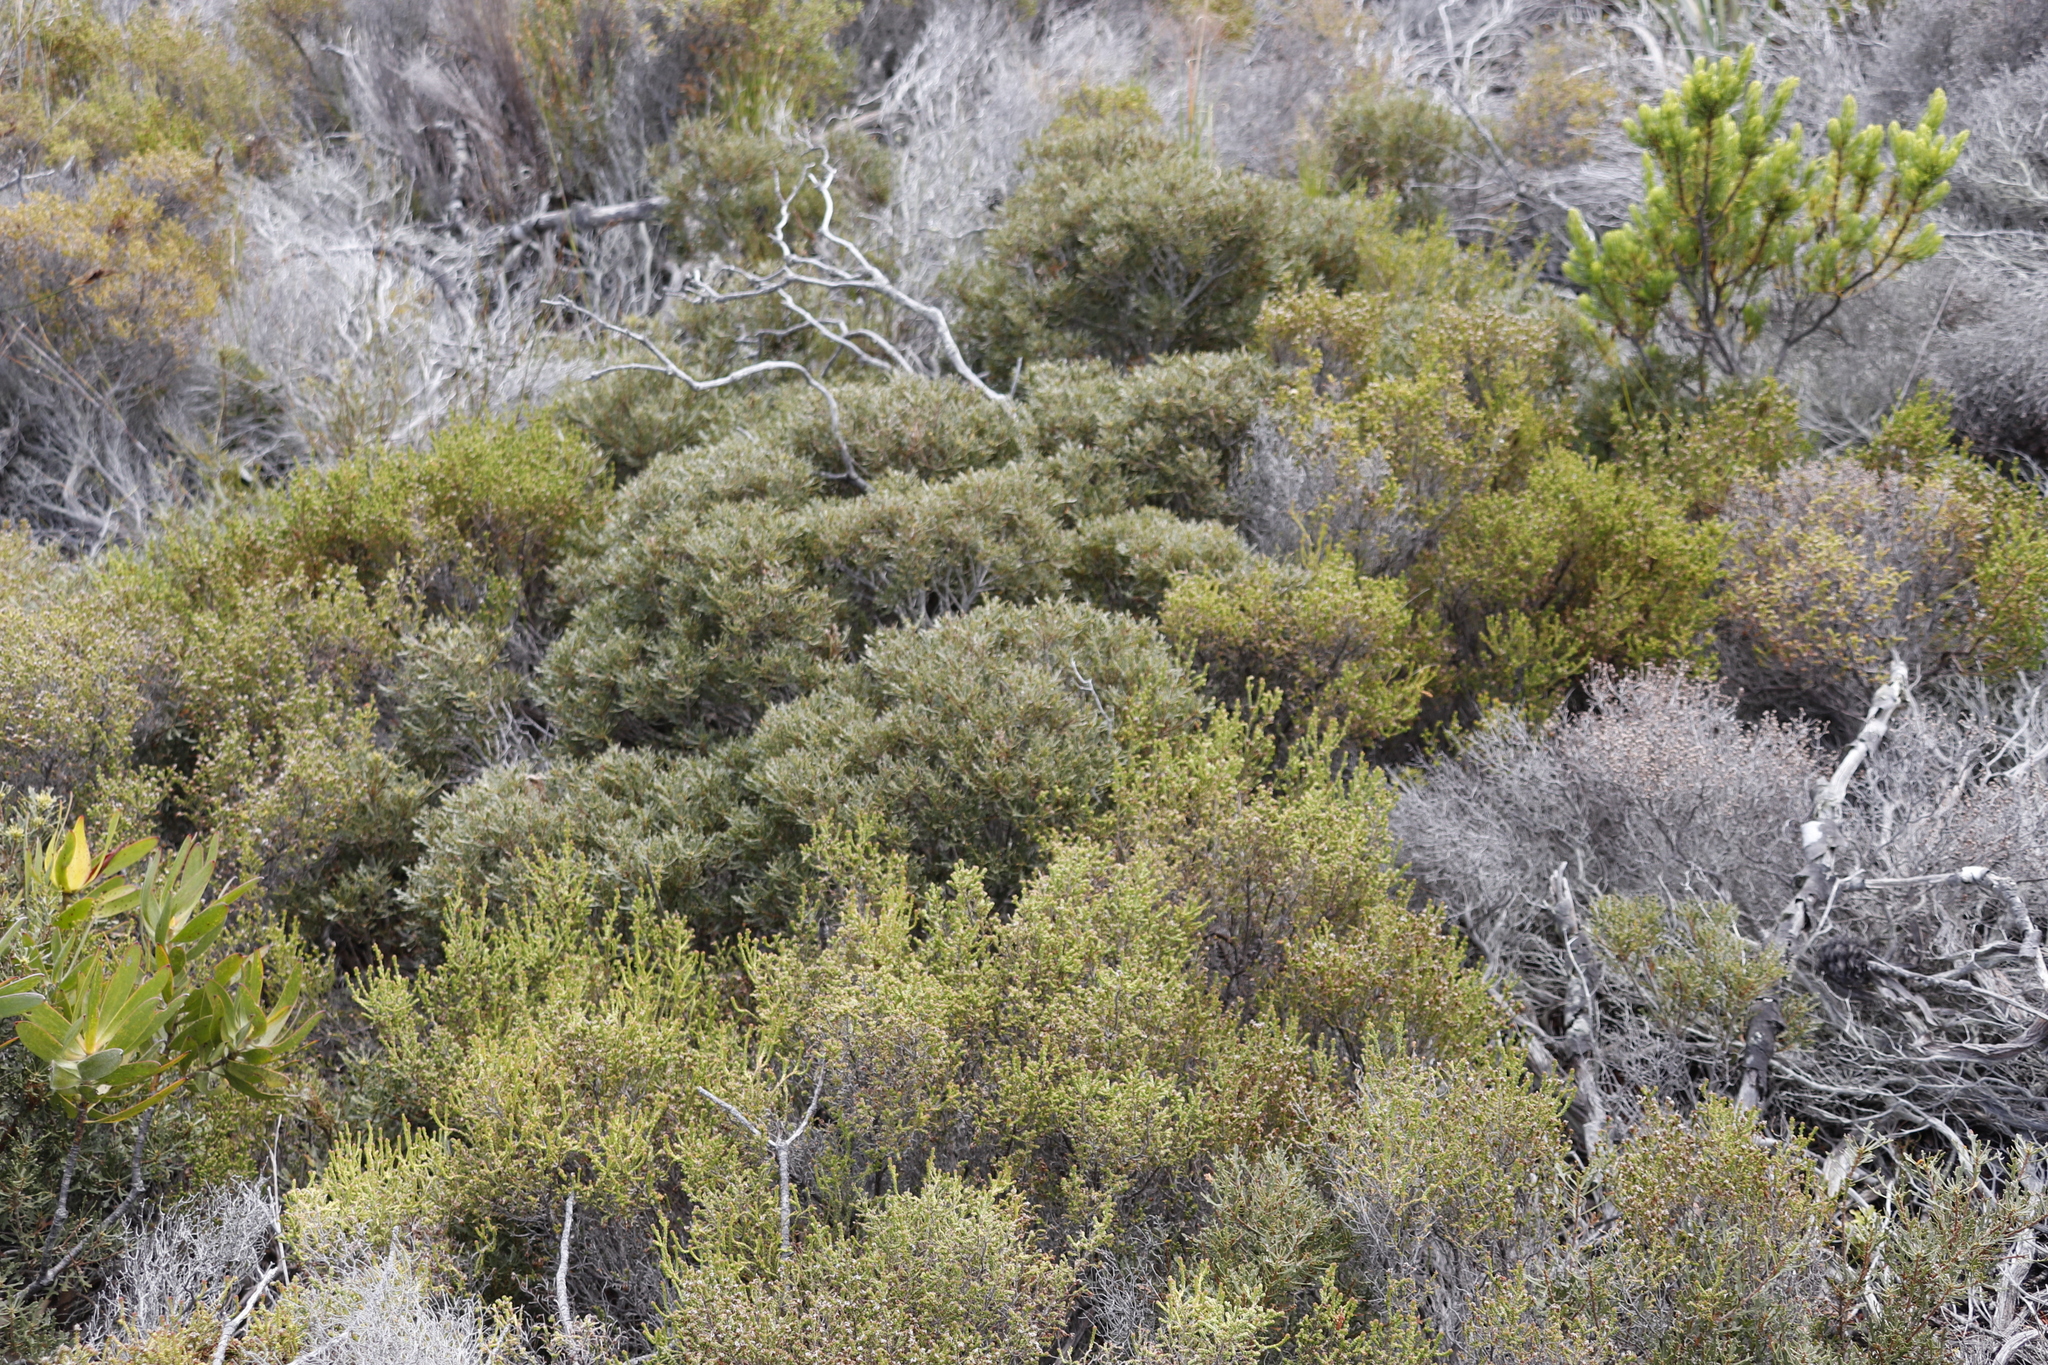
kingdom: Plantae
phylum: Tracheophyta
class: Magnoliopsida
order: Fagales
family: Myricaceae
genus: Morella
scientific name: Morella quercifolia
